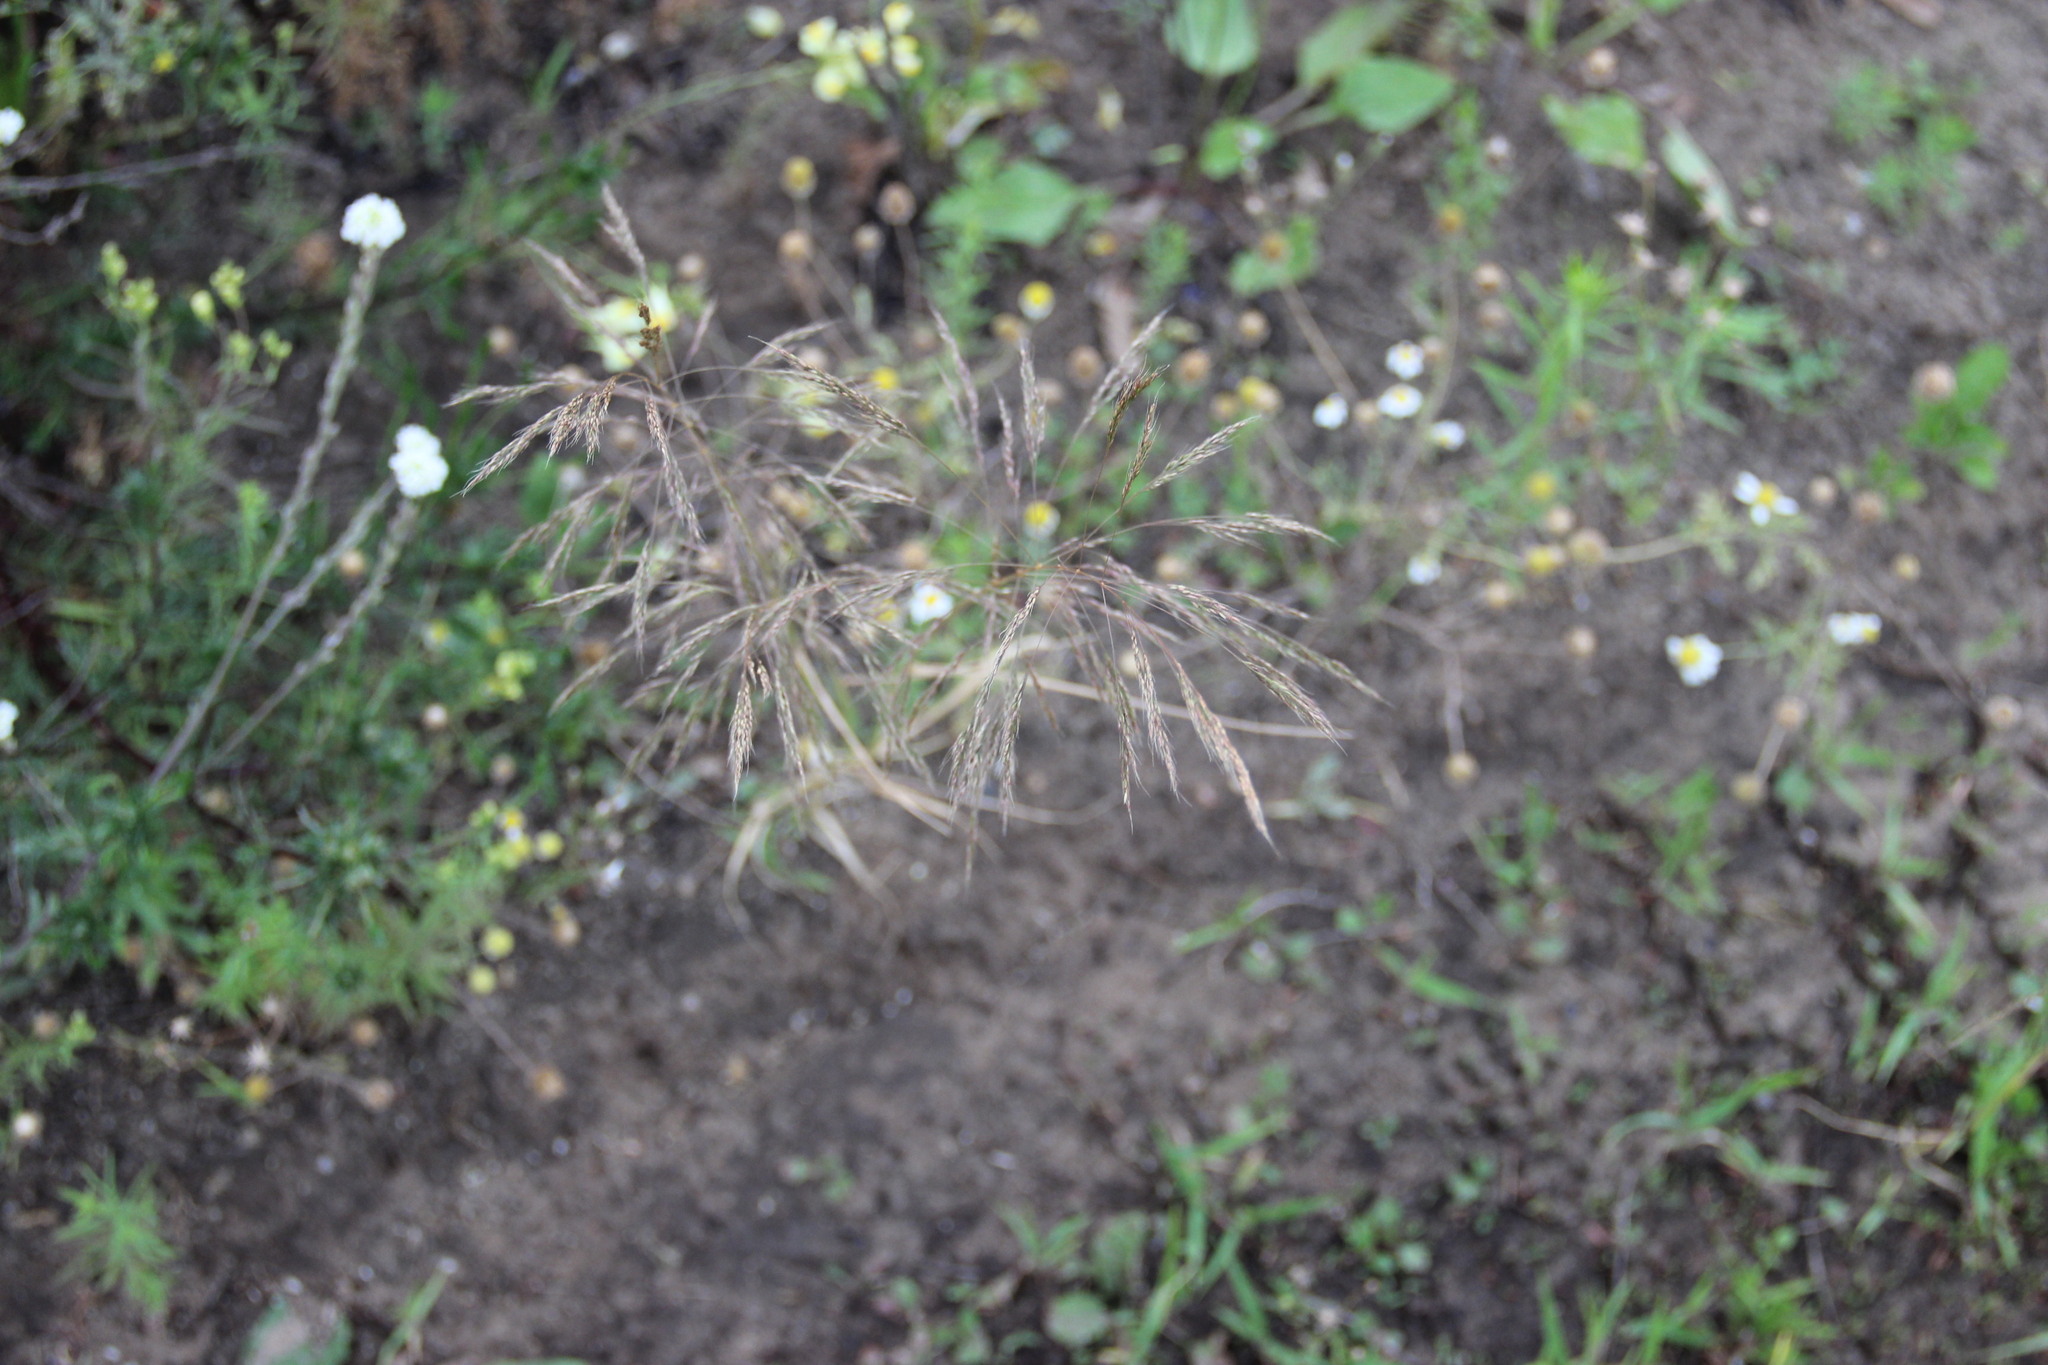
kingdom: Plantae
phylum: Tracheophyta
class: Liliopsida
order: Poales
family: Poaceae
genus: Apera
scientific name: Apera spica-venti
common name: Loose silky-bent
